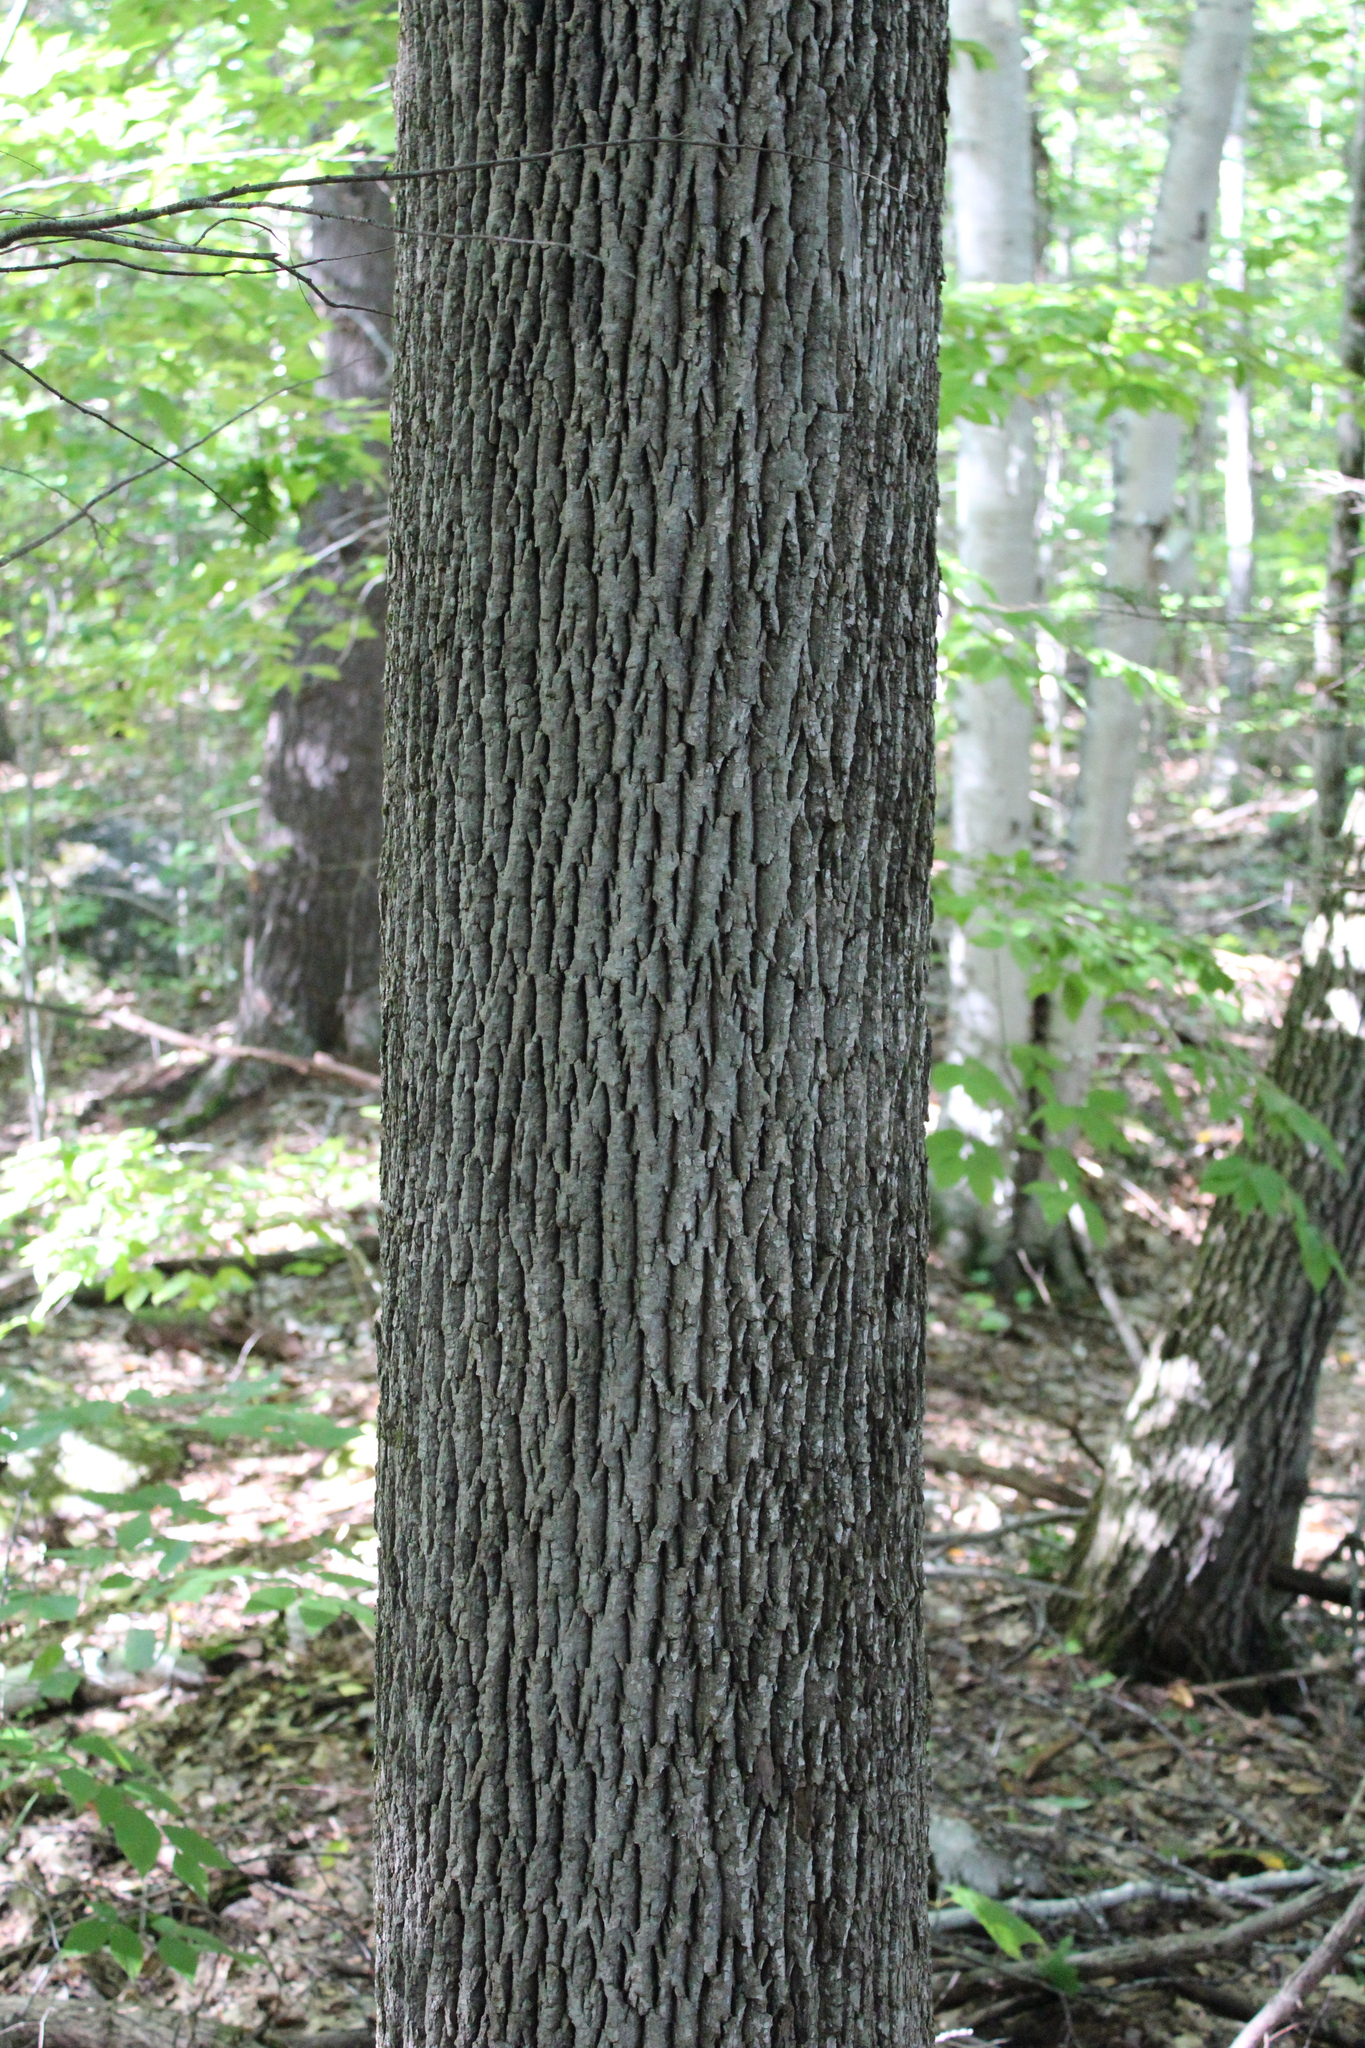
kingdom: Plantae
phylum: Tracheophyta
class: Magnoliopsida
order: Lamiales
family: Oleaceae
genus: Fraxinus
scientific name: Fraxinus americana
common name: White ash
